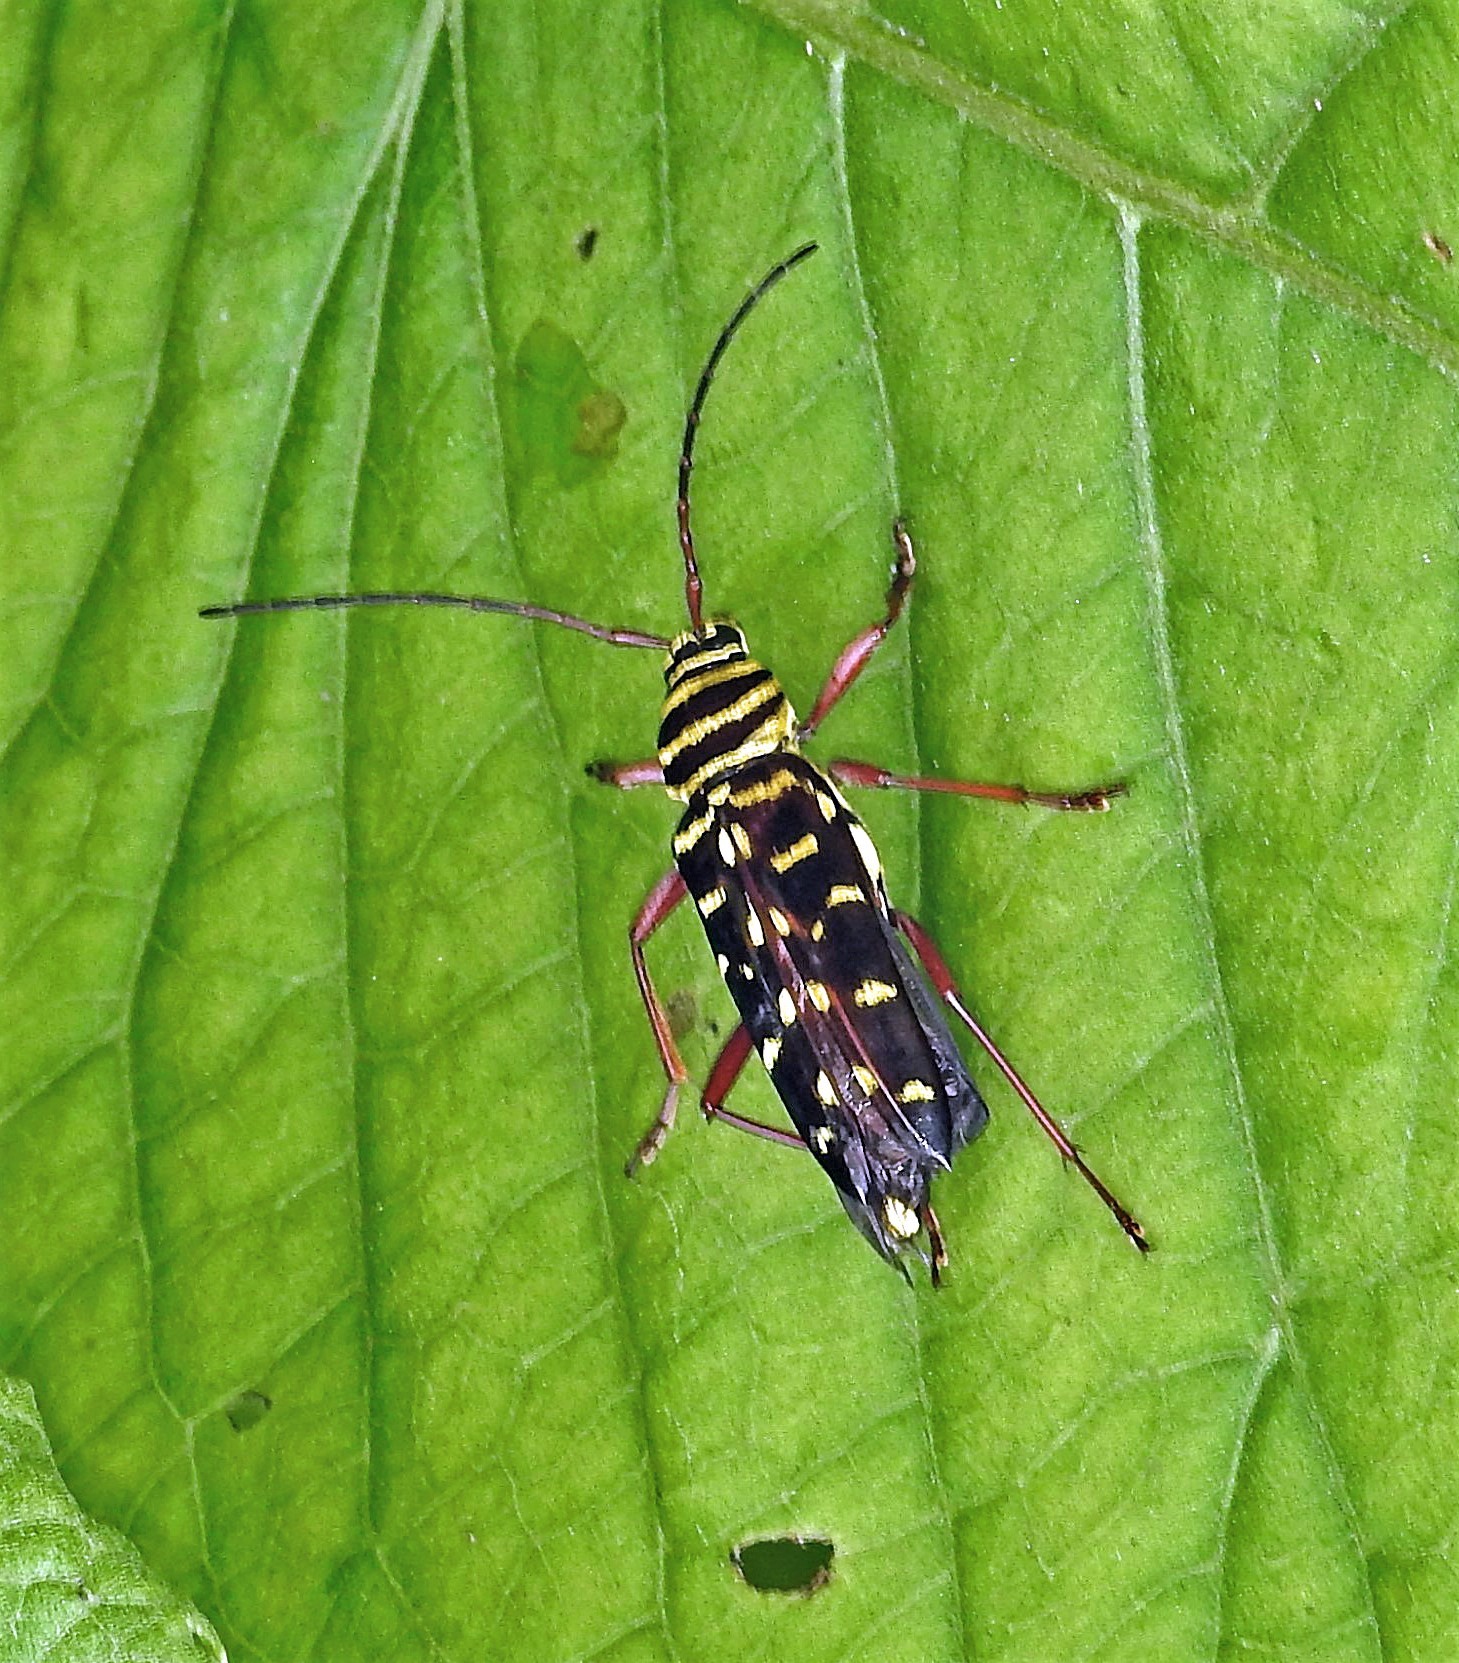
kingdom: Animalia
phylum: Arthropoda
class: Insecta
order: Coleoptera
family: Cerambycidae
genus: Megacyllene
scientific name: Megacyllene proxima
